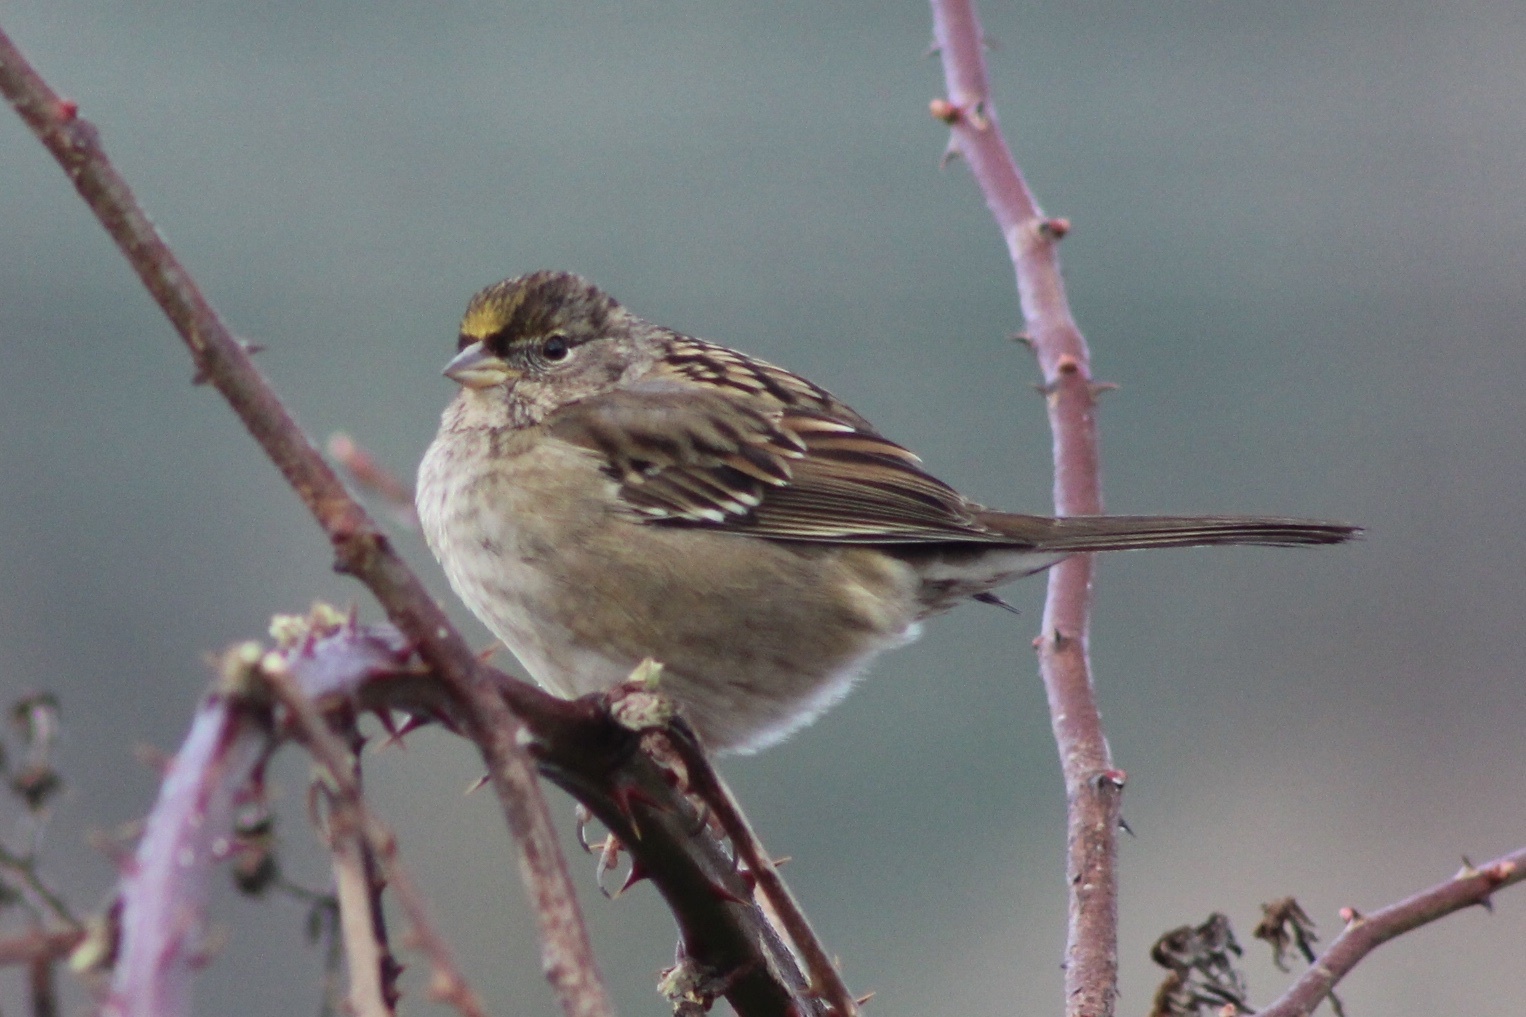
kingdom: Animalia
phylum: Chordata
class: Aves
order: Passeriformes
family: Passerellidae
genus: Zonotrichia
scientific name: Zonotrichia atricapilla
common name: Golden-crowned sparrow
